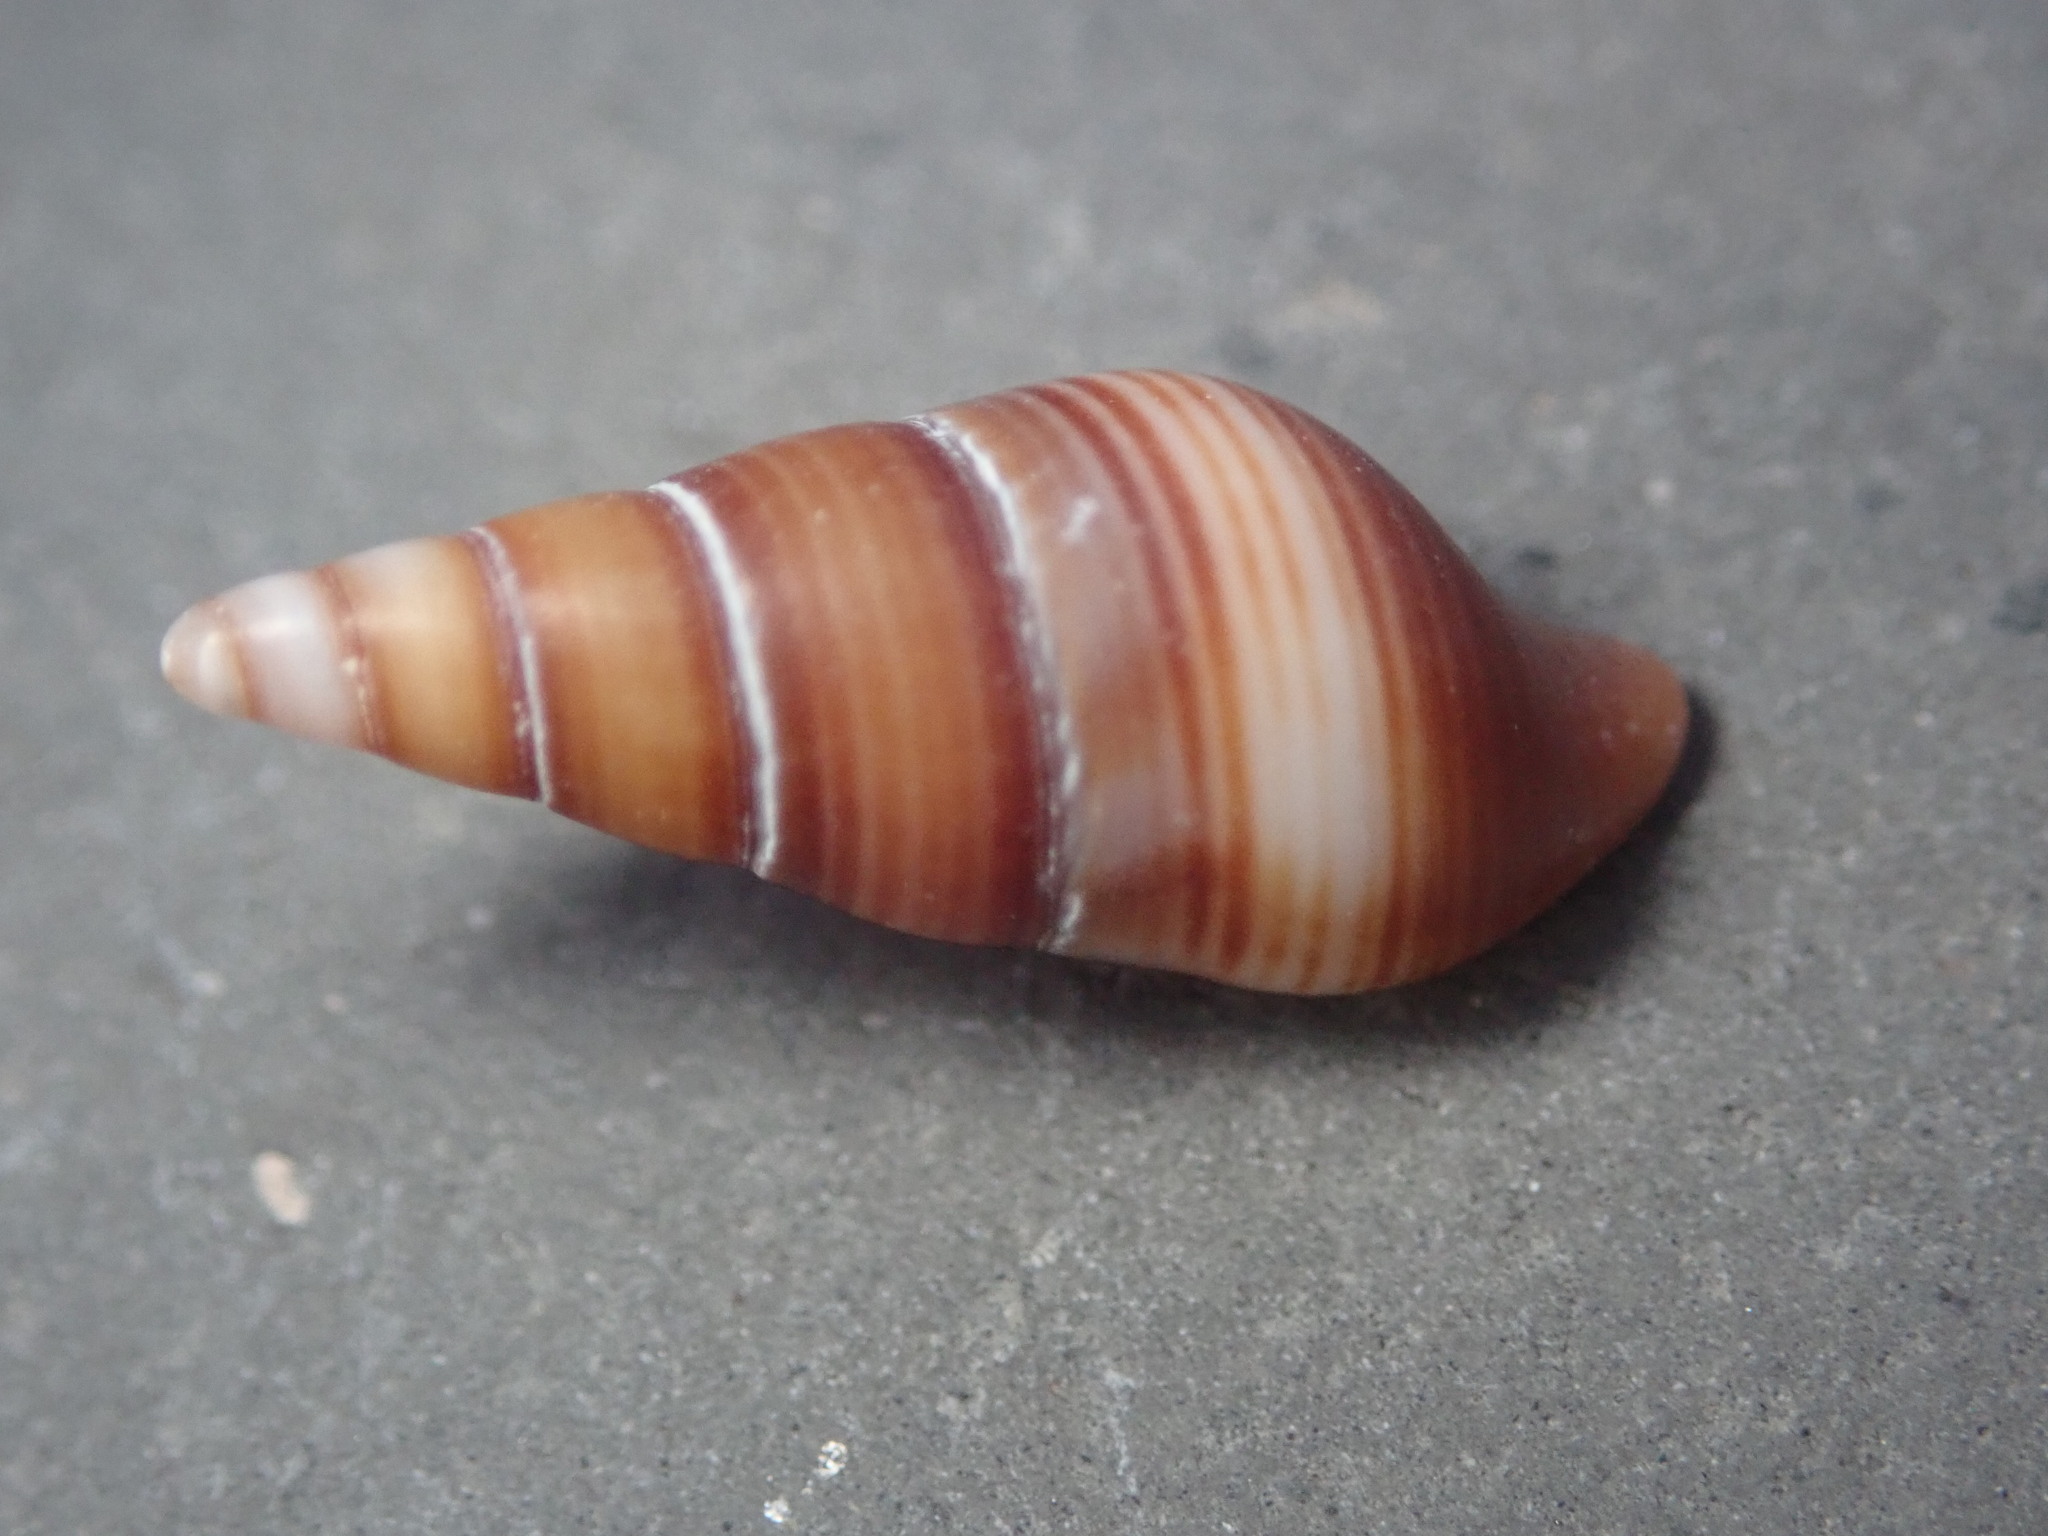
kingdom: Animalia
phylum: Mollusca
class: Gastropoda
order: Neogastropoda
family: Borsoniidae
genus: Ophiodermella
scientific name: Ophiodermella inermis
